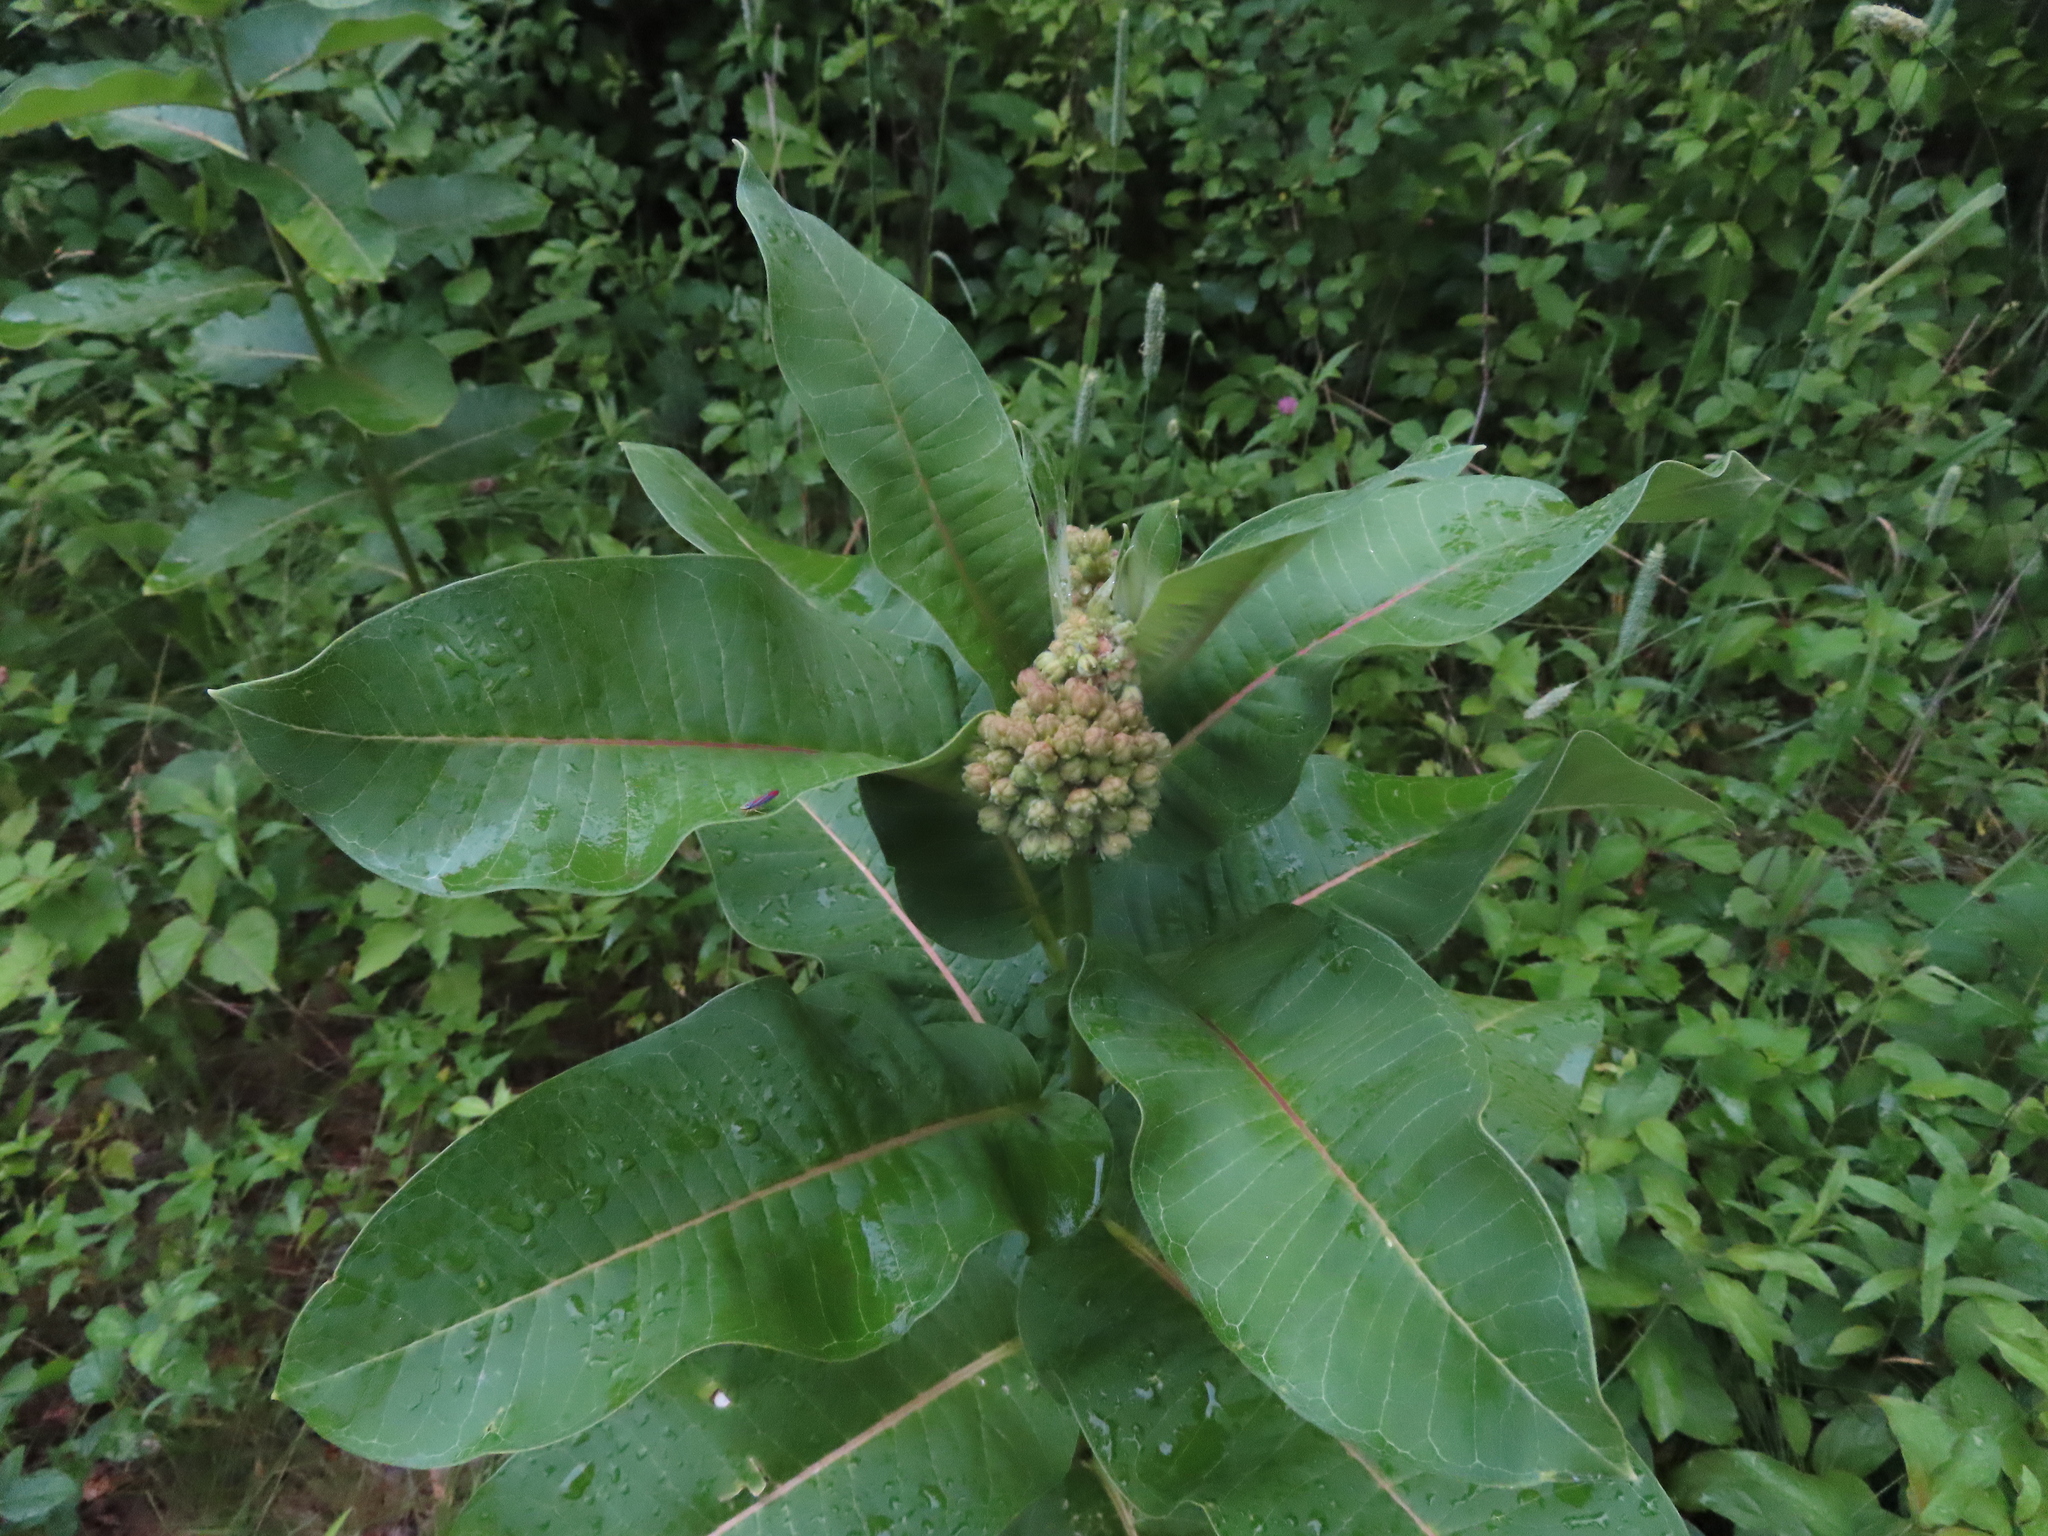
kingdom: Plantae
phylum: Tracheophyta
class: Magnoliopsida
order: Gentianales
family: Apocynaceae
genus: Asclepias
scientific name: Asclepias syriaca
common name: Common milkweed
